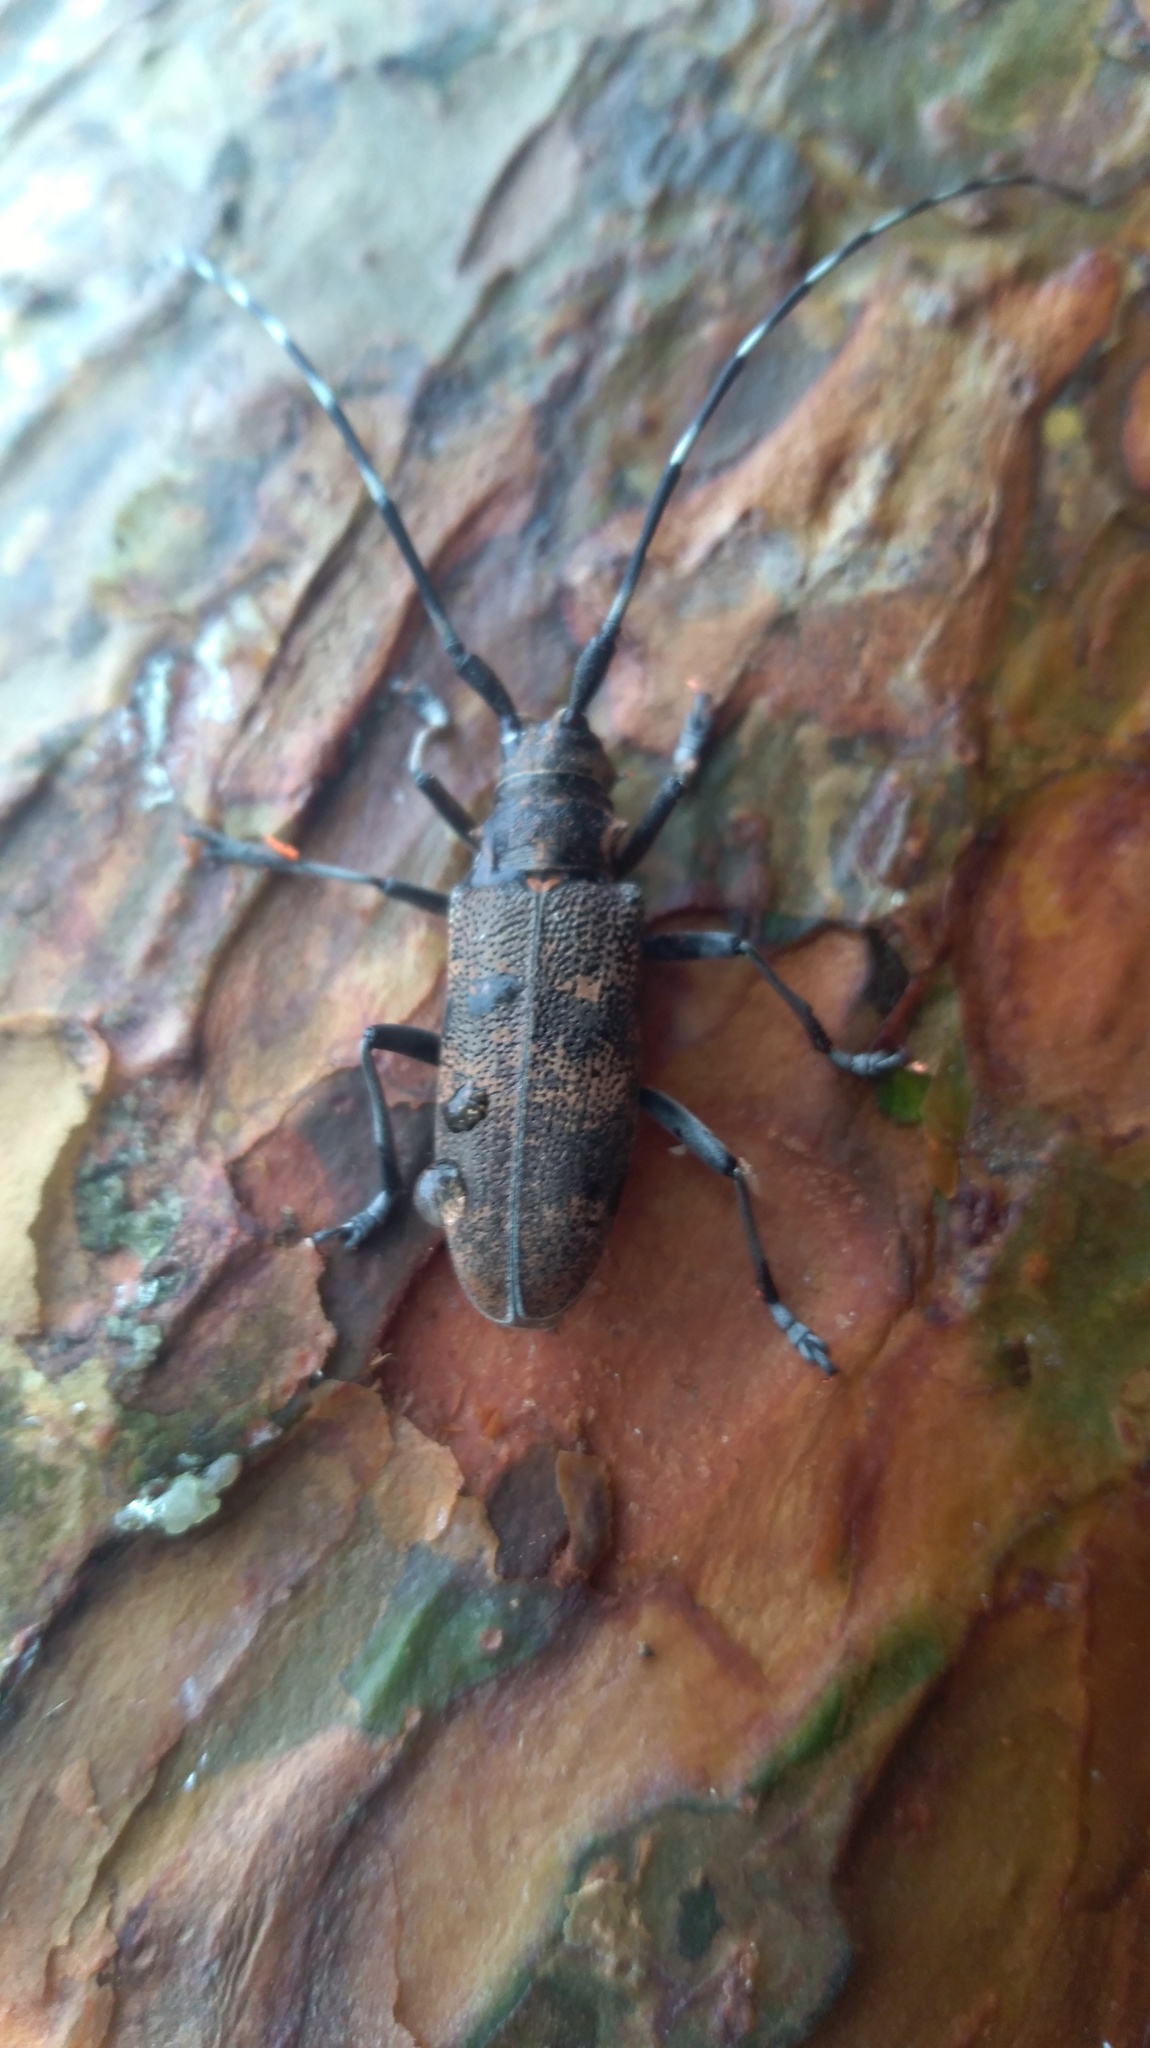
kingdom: Animalia
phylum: Arthropoda
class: Insecta
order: Coleoptera
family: Cerambycidae
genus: Monochamus
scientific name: Monochamus galloprovincialis
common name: Pine sawyer
